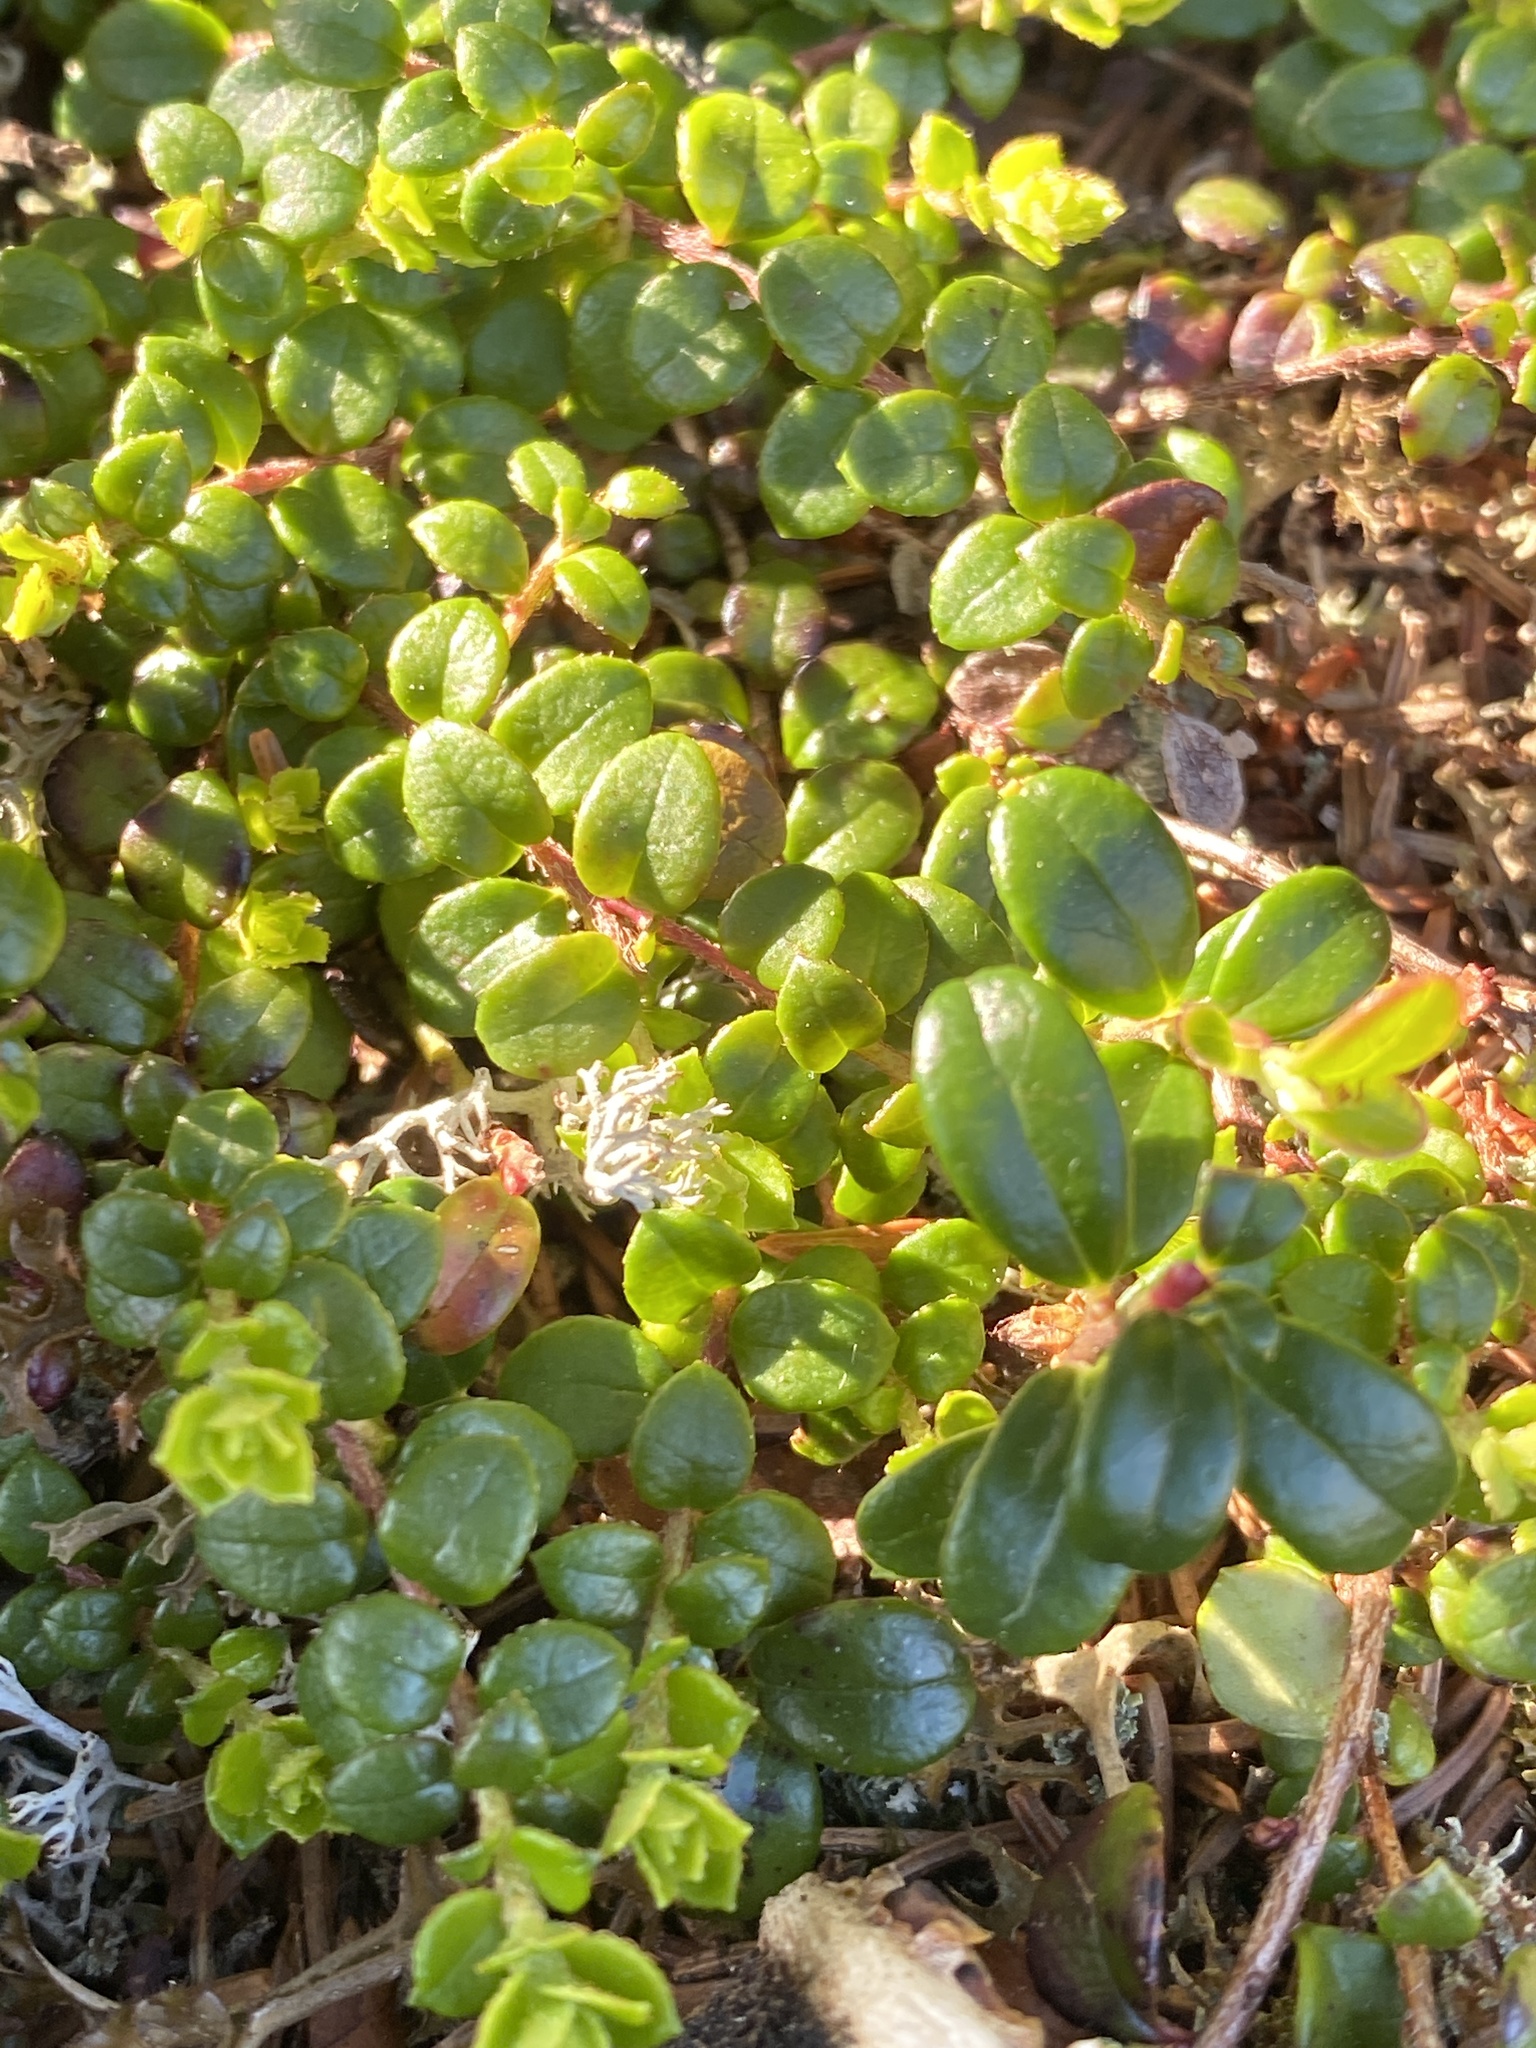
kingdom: Plantae
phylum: Tracheophyta
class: Magnoliopsida
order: Ericales
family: Ericaceae
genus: Vaccinium
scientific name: Vaccinium vitis-idaea
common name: Cowberry
